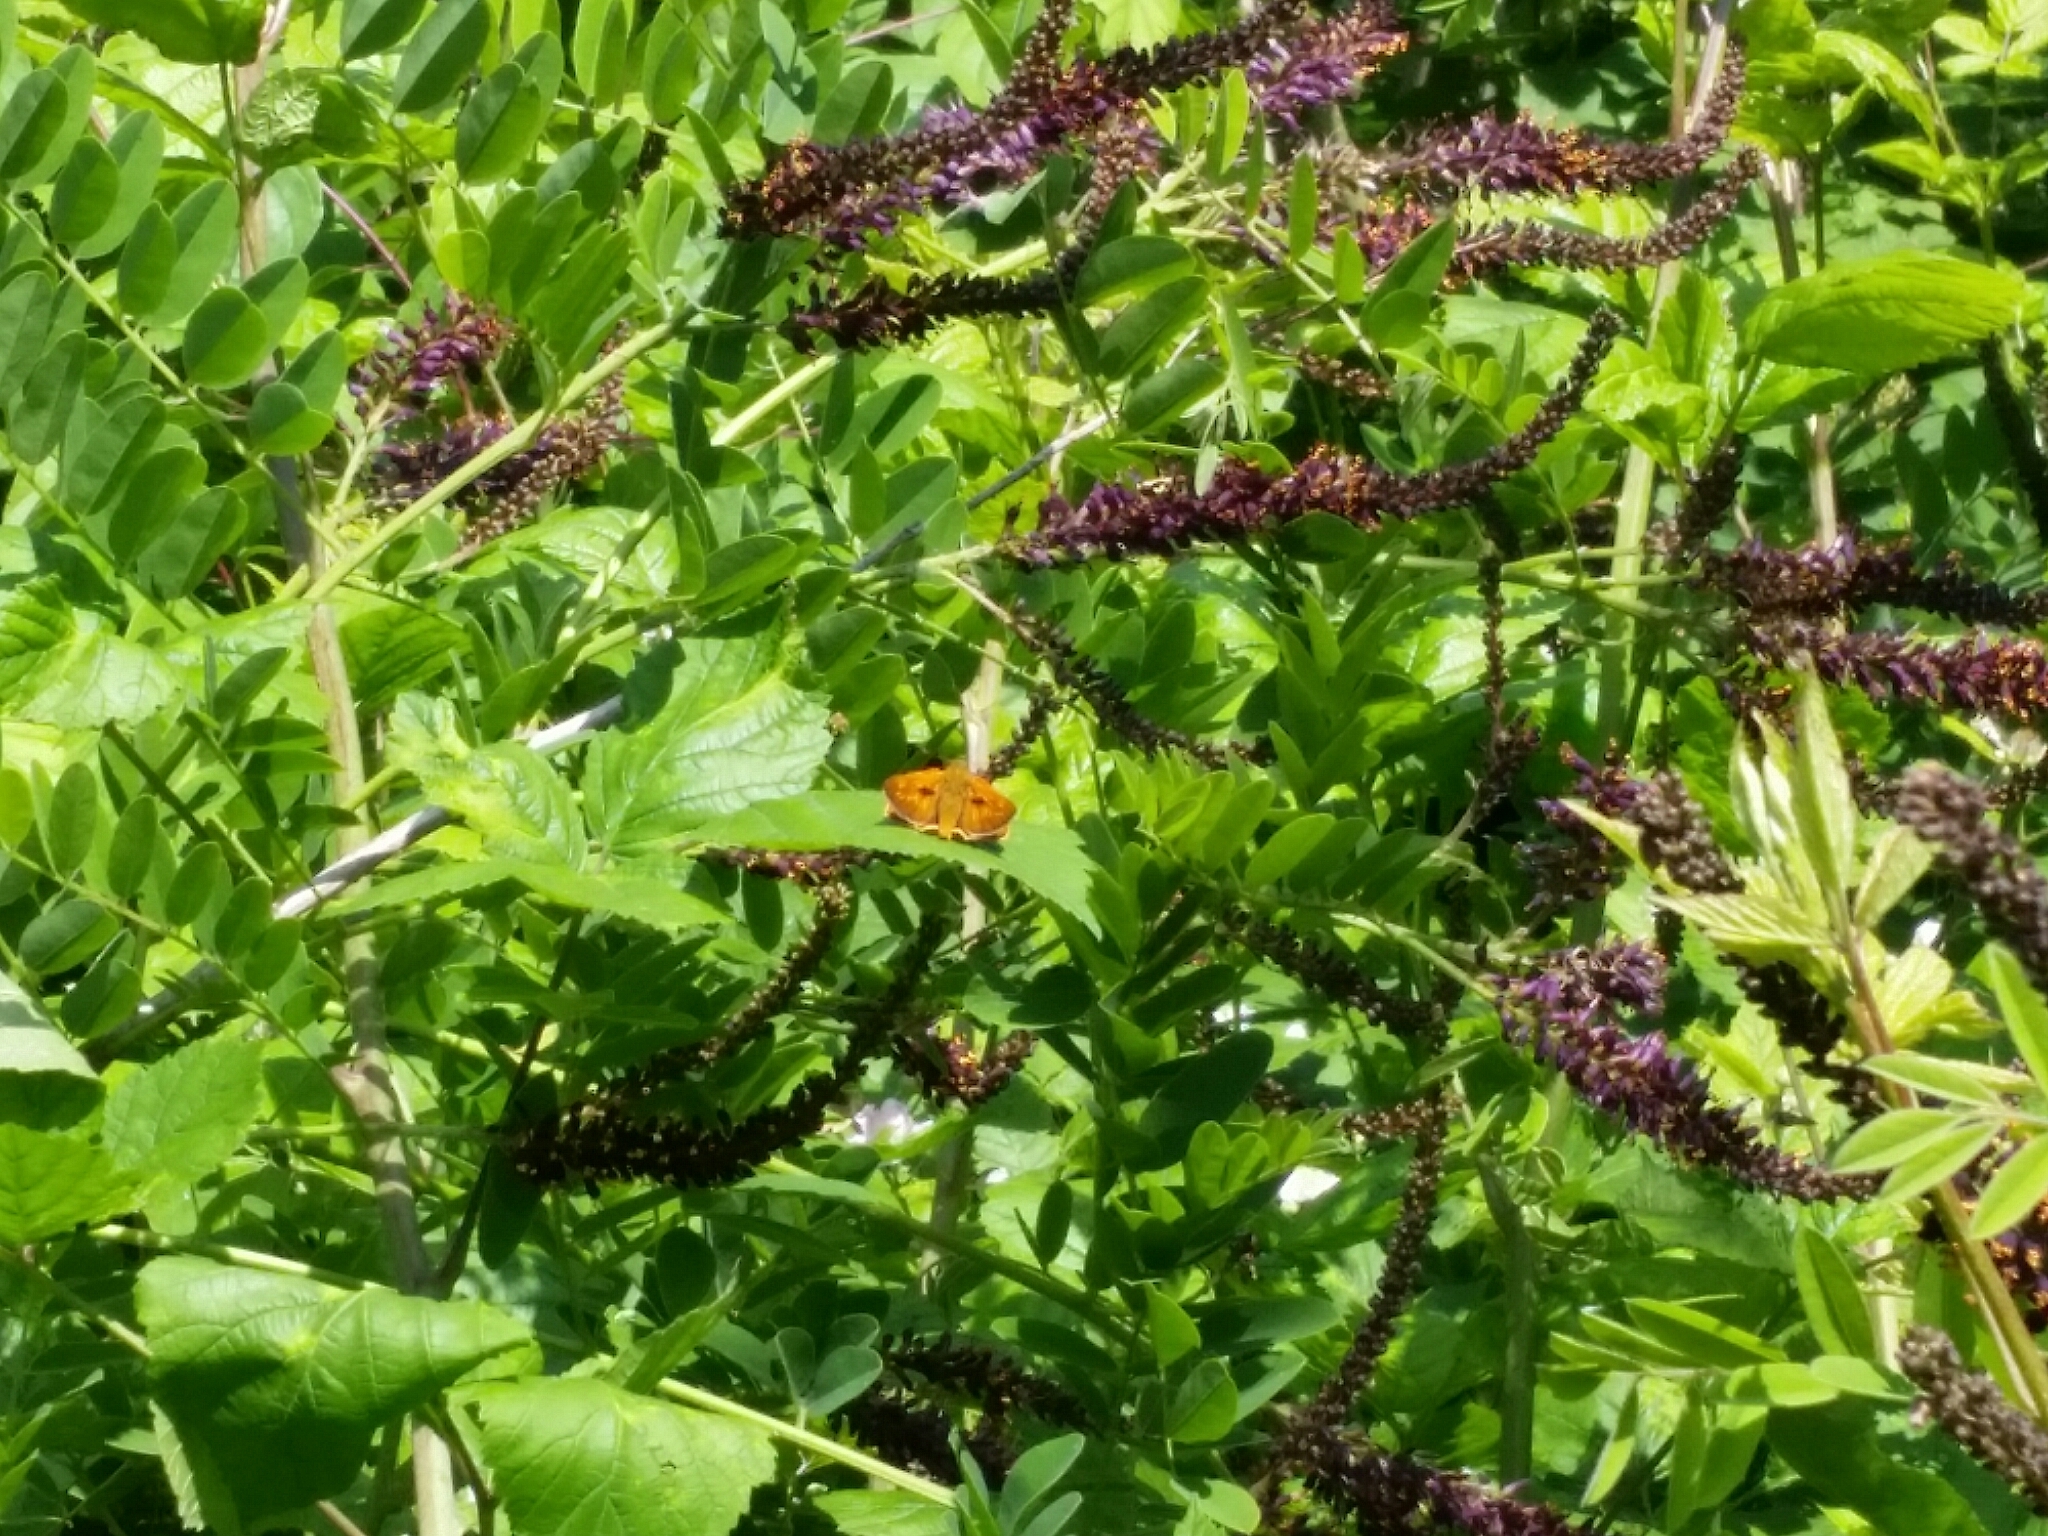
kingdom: Animalia
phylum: Arthropoda
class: Insecta
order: Lepidoptera
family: Hesperiidae
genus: Ochlodes
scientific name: Ochlodes venata
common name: Large skipper
